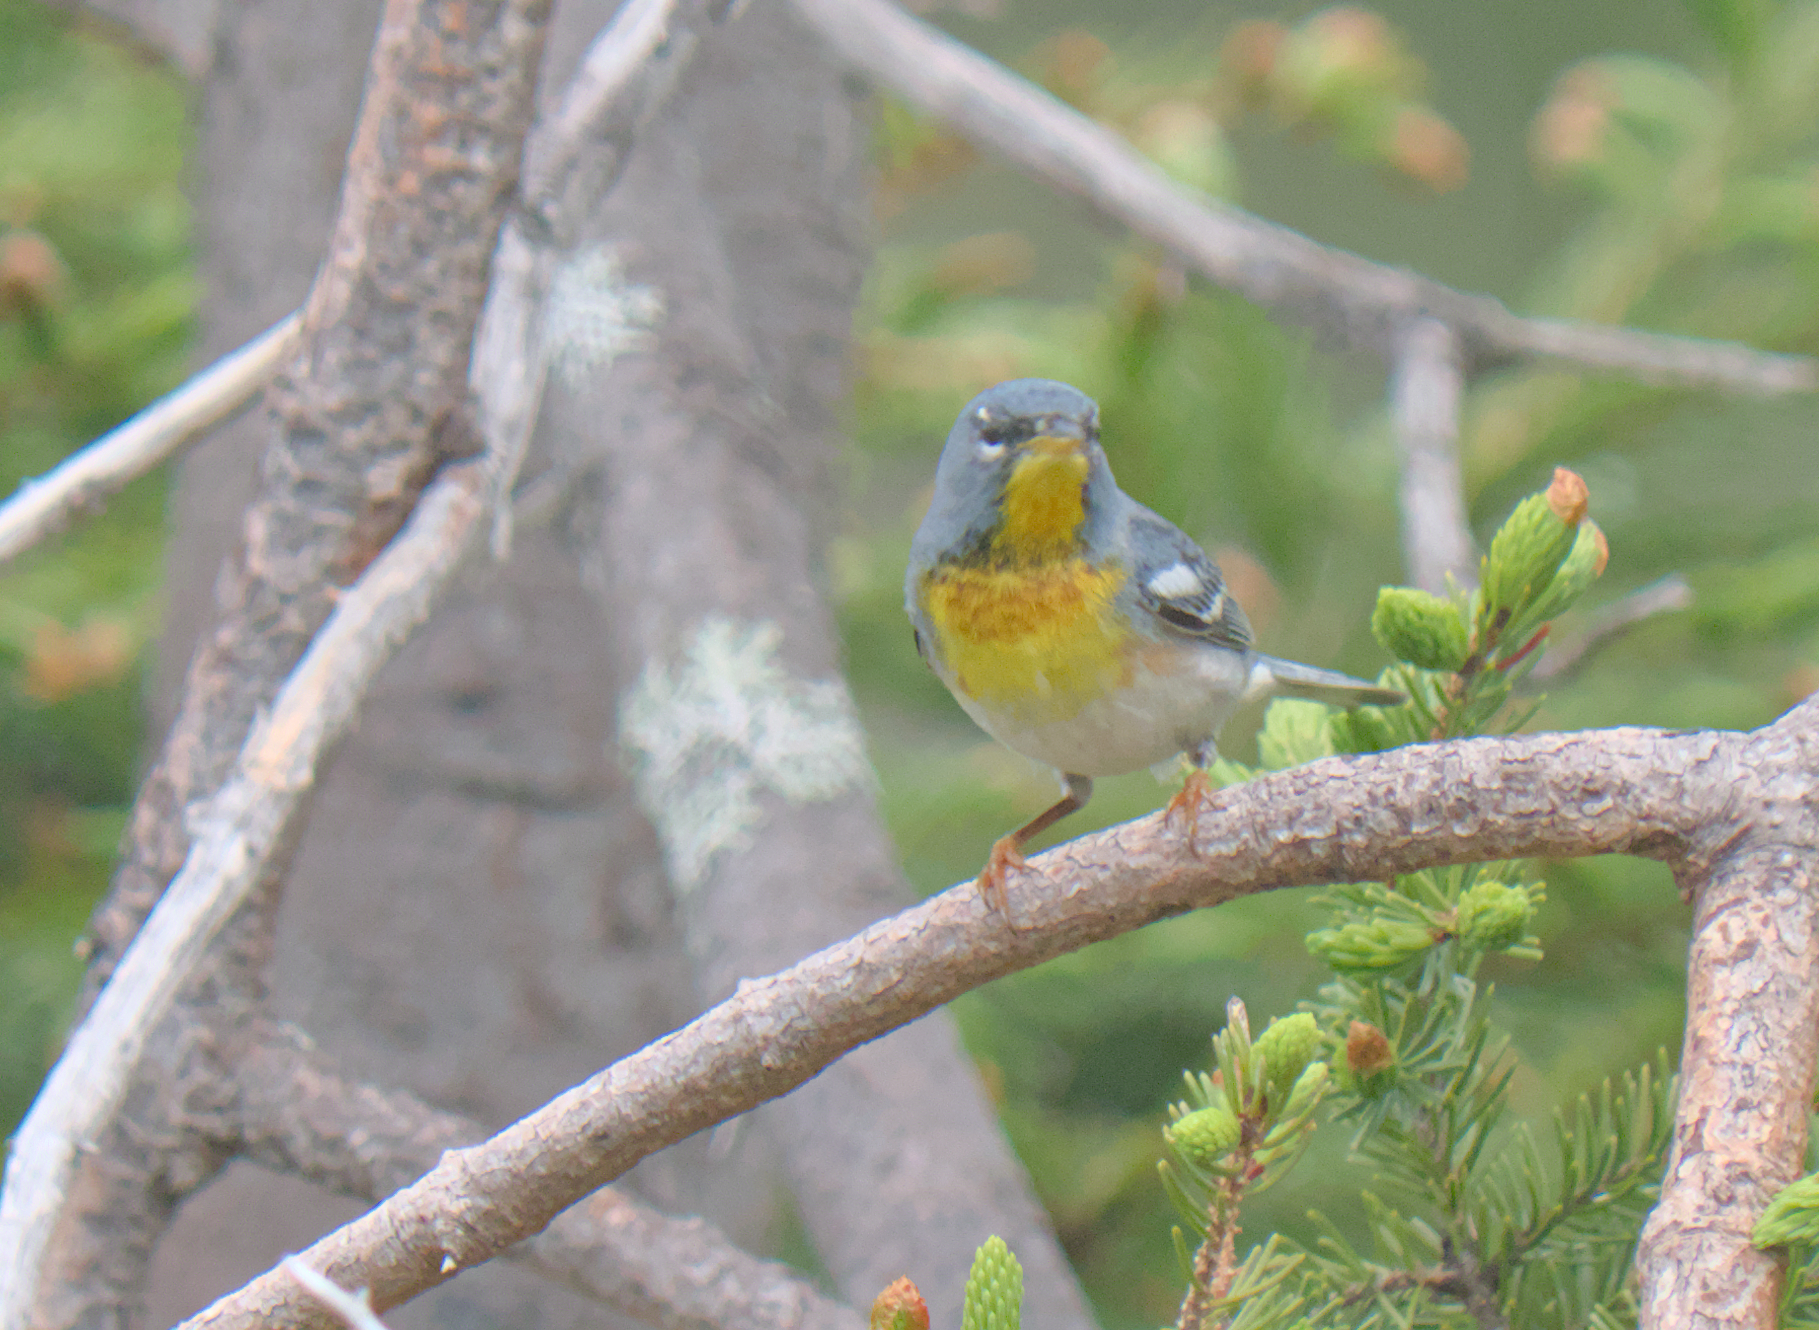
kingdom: Animalia
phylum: Chordata
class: Aves
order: Passeriformes
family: Parulidae
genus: Setophaga
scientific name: Setophaga americana
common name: Northern parula
